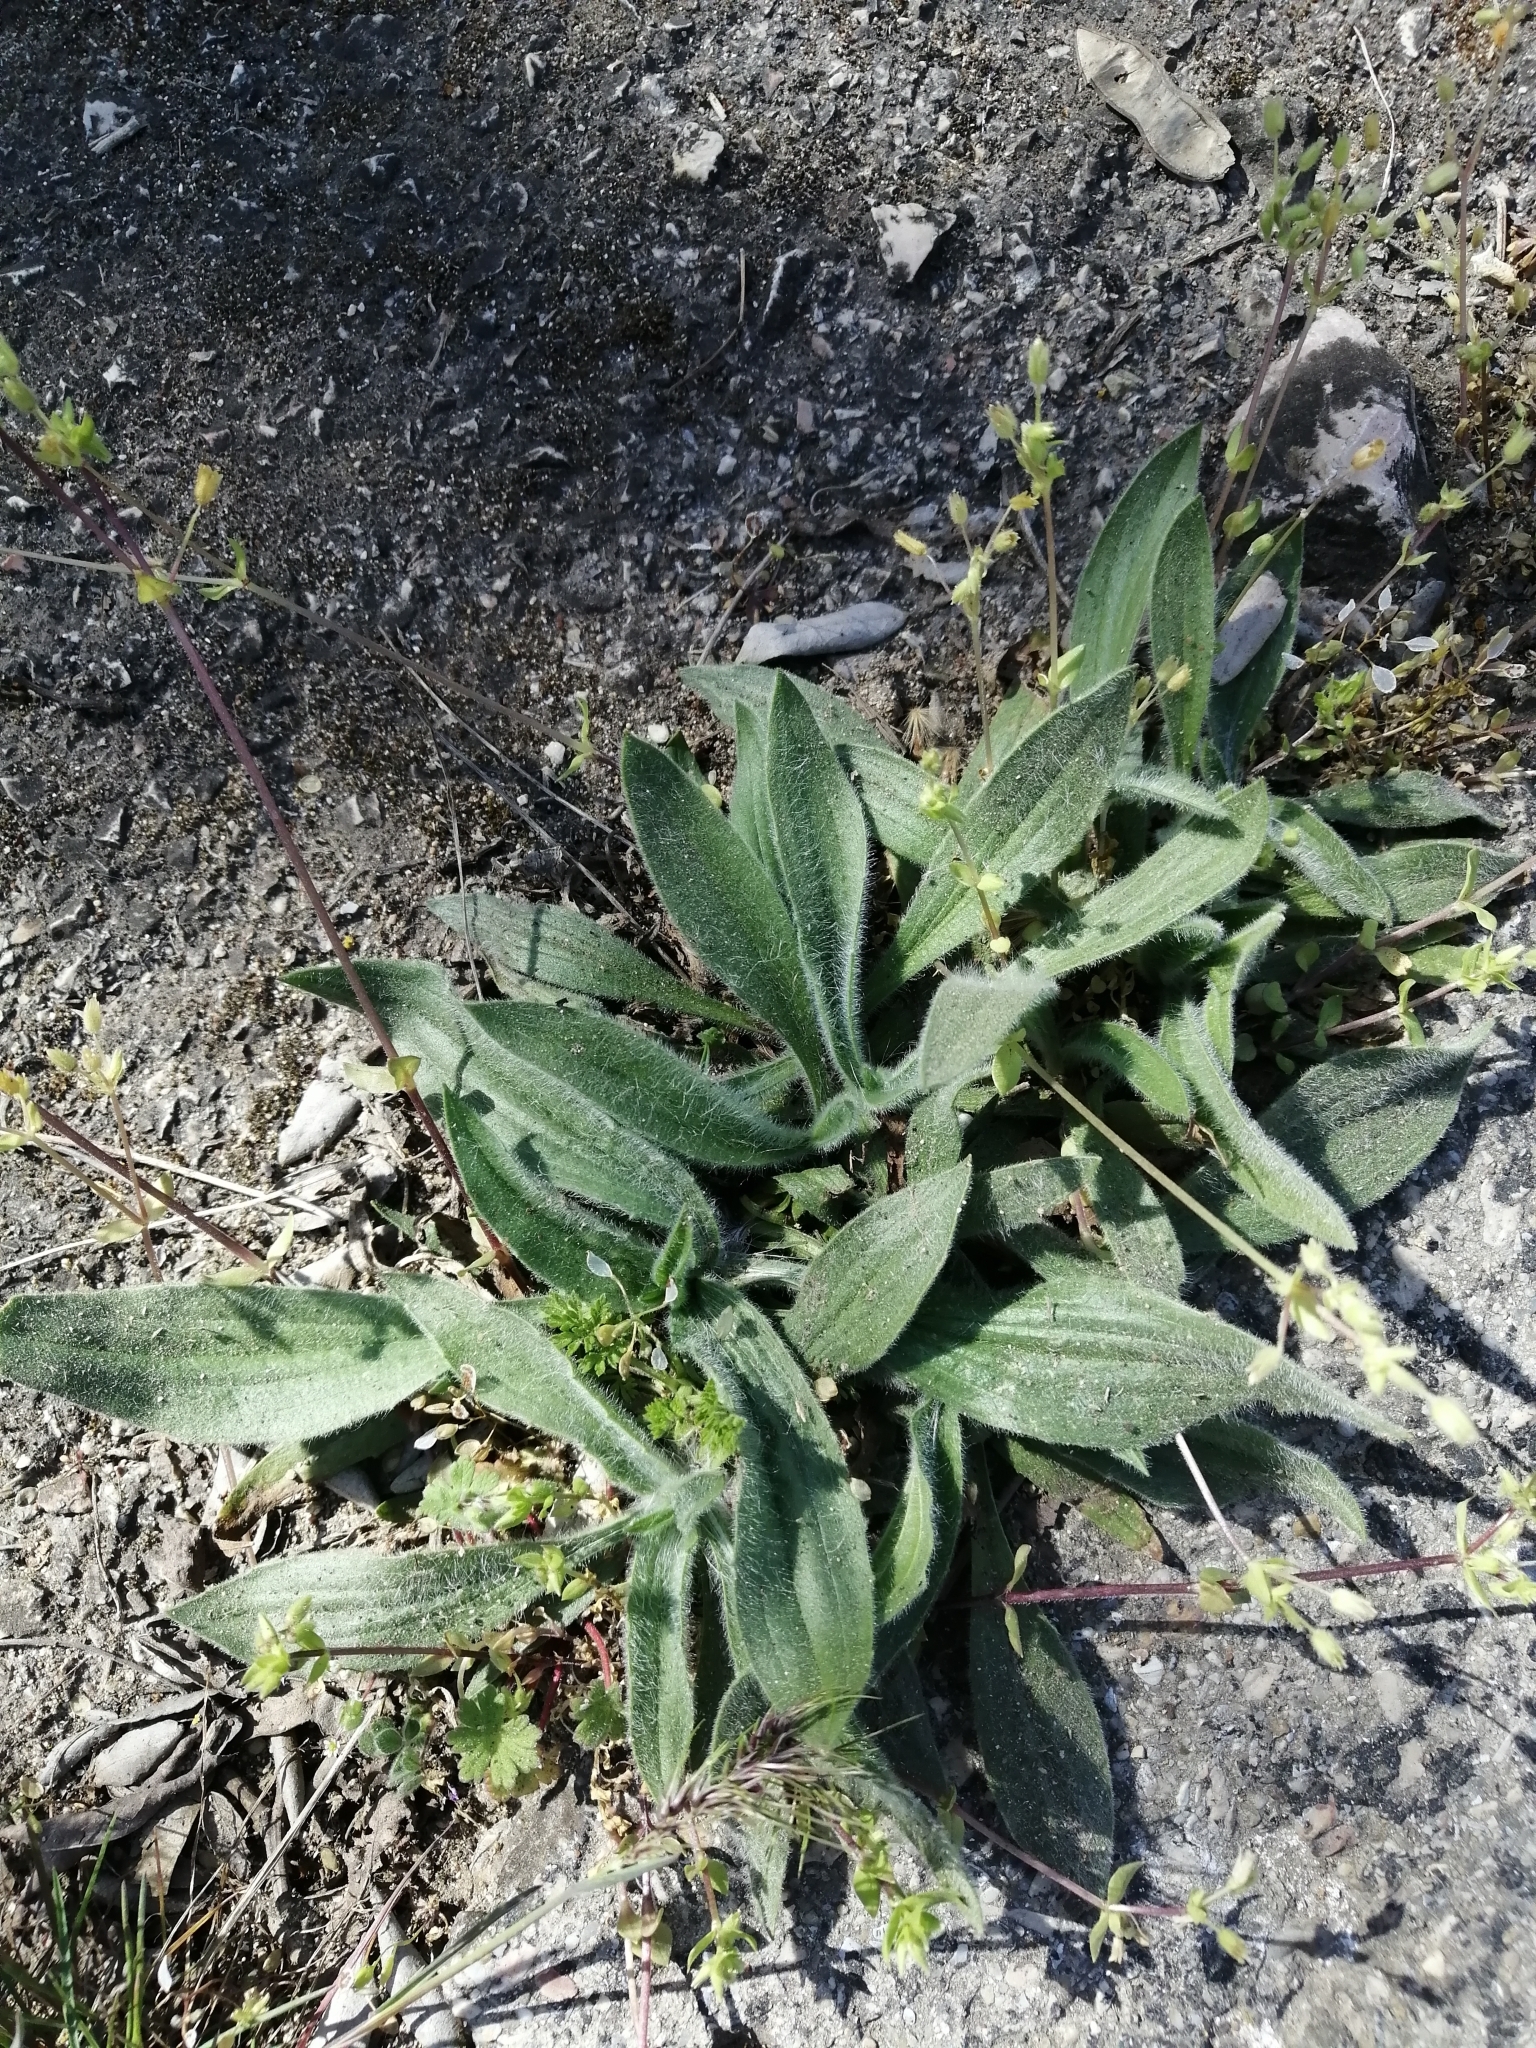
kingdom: Plantae
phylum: Tracheophyta
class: Magnoliopsida
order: Lamiales
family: Plantaginaceae
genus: Plantago
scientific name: Plantago lanceolata
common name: Ribwort plantain
